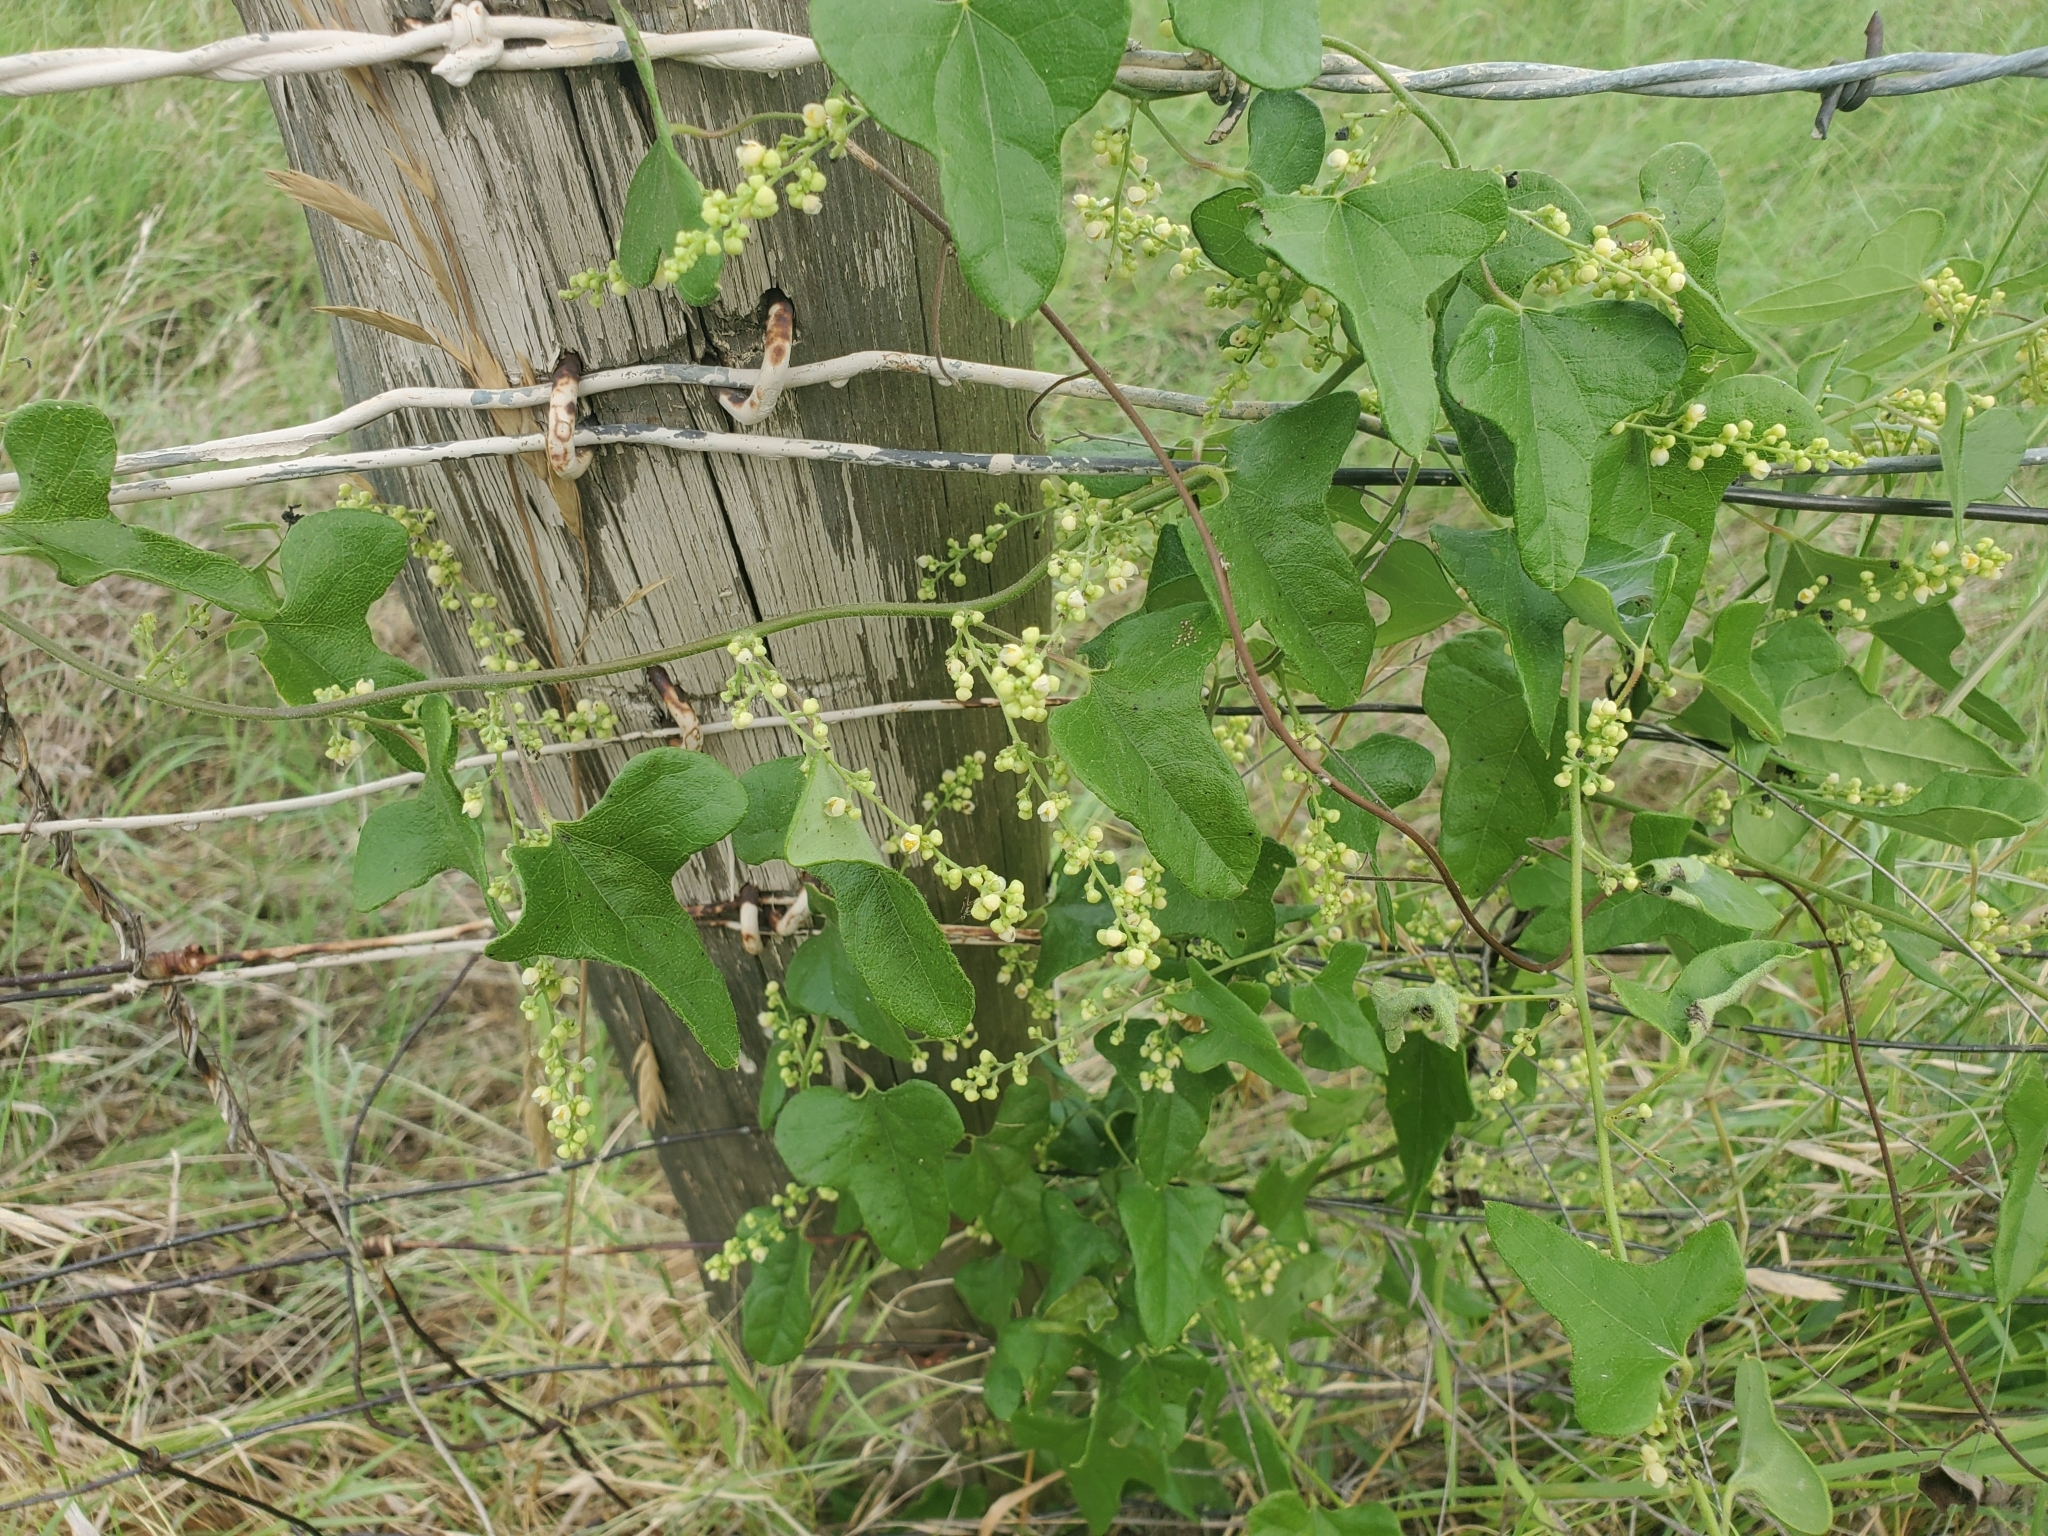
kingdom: Plantae
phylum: Tracheophyta
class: Magnoliopsida
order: Ranunculales
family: Menispermaceae
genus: Cocculus
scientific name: Cocculus carolinus
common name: Carolina moonseed
